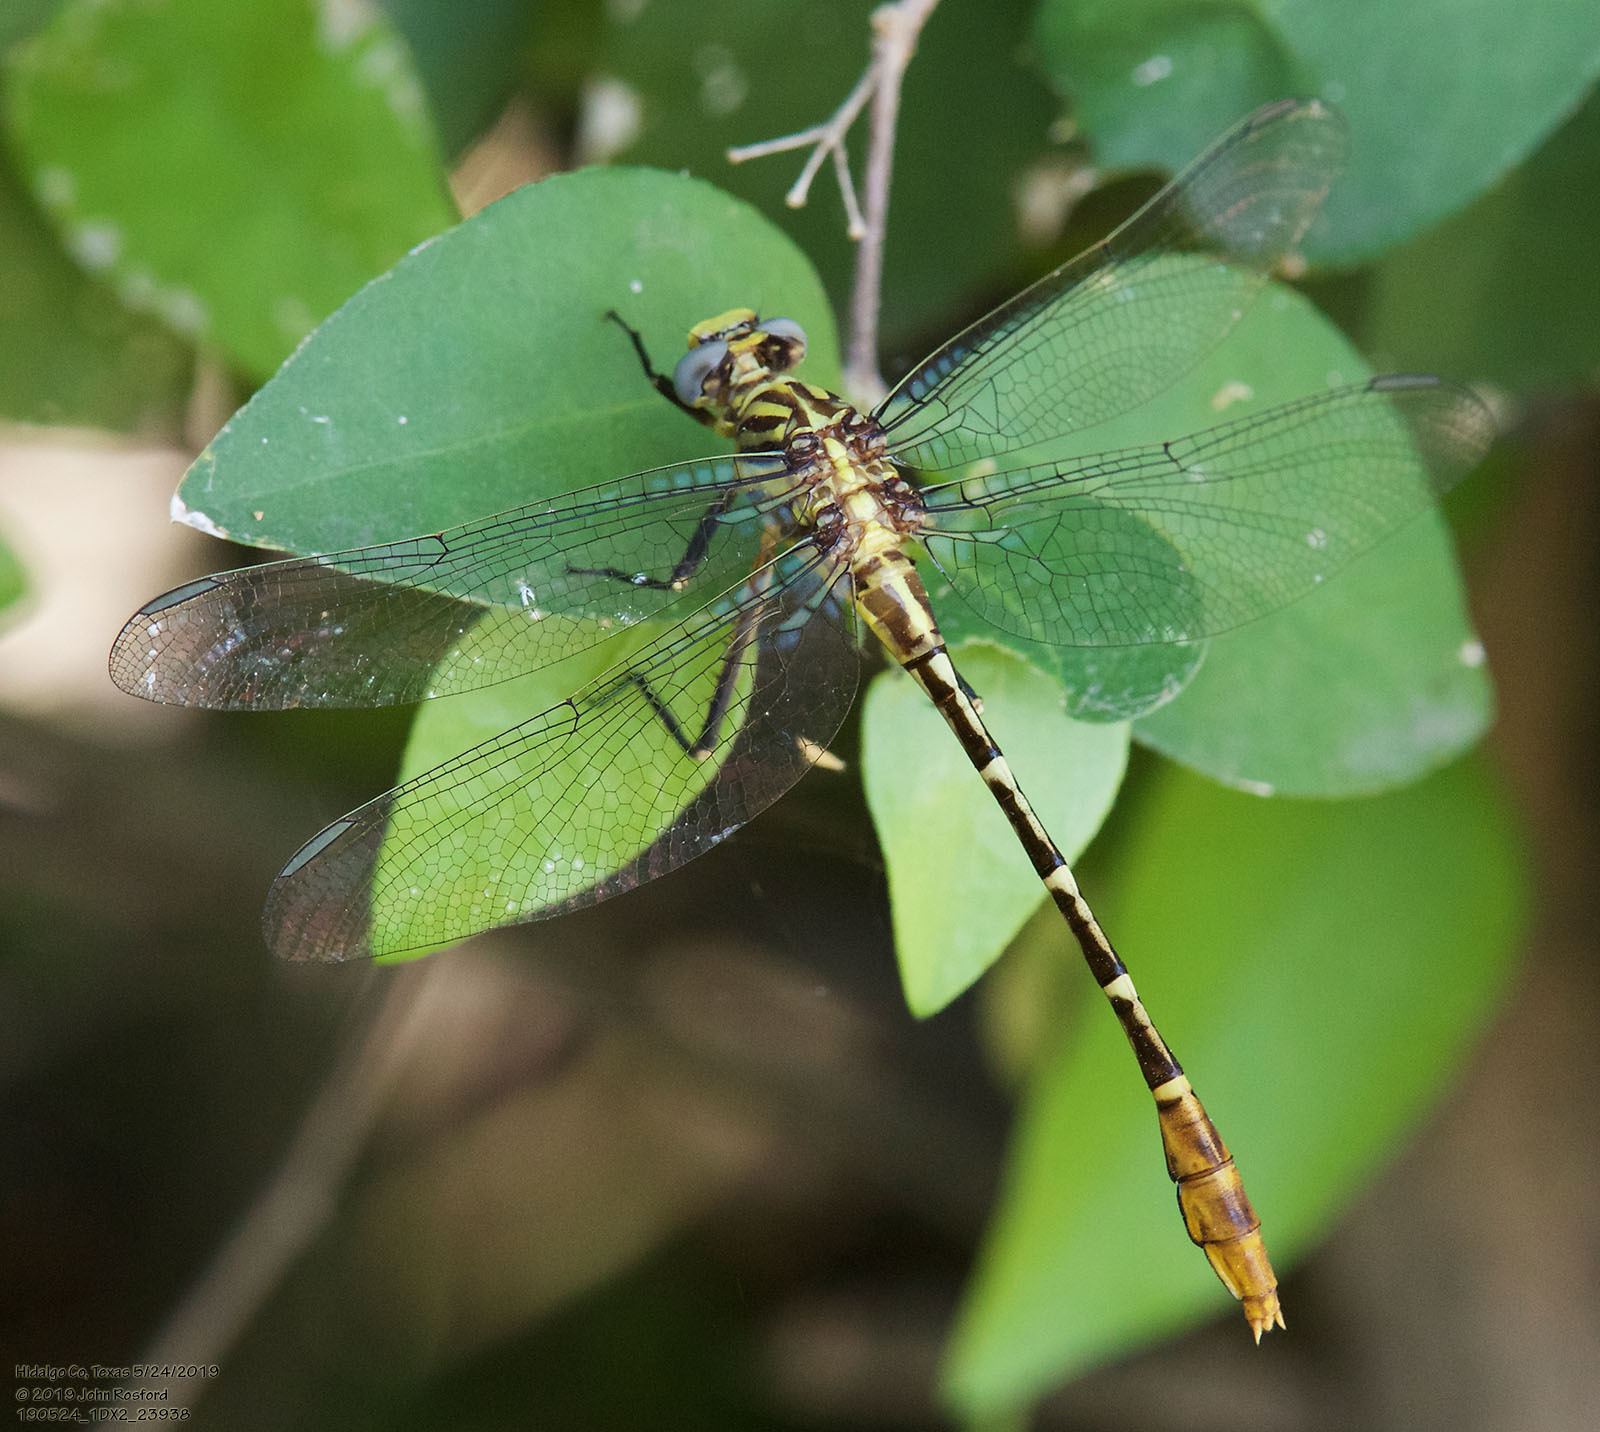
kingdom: Animalia
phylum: Arthropoda
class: Insecta
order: Odonata
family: Gomphidae
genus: Dromogomphus
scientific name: Dromogomphus spoliatus
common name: Flag-tailed spinyleg
